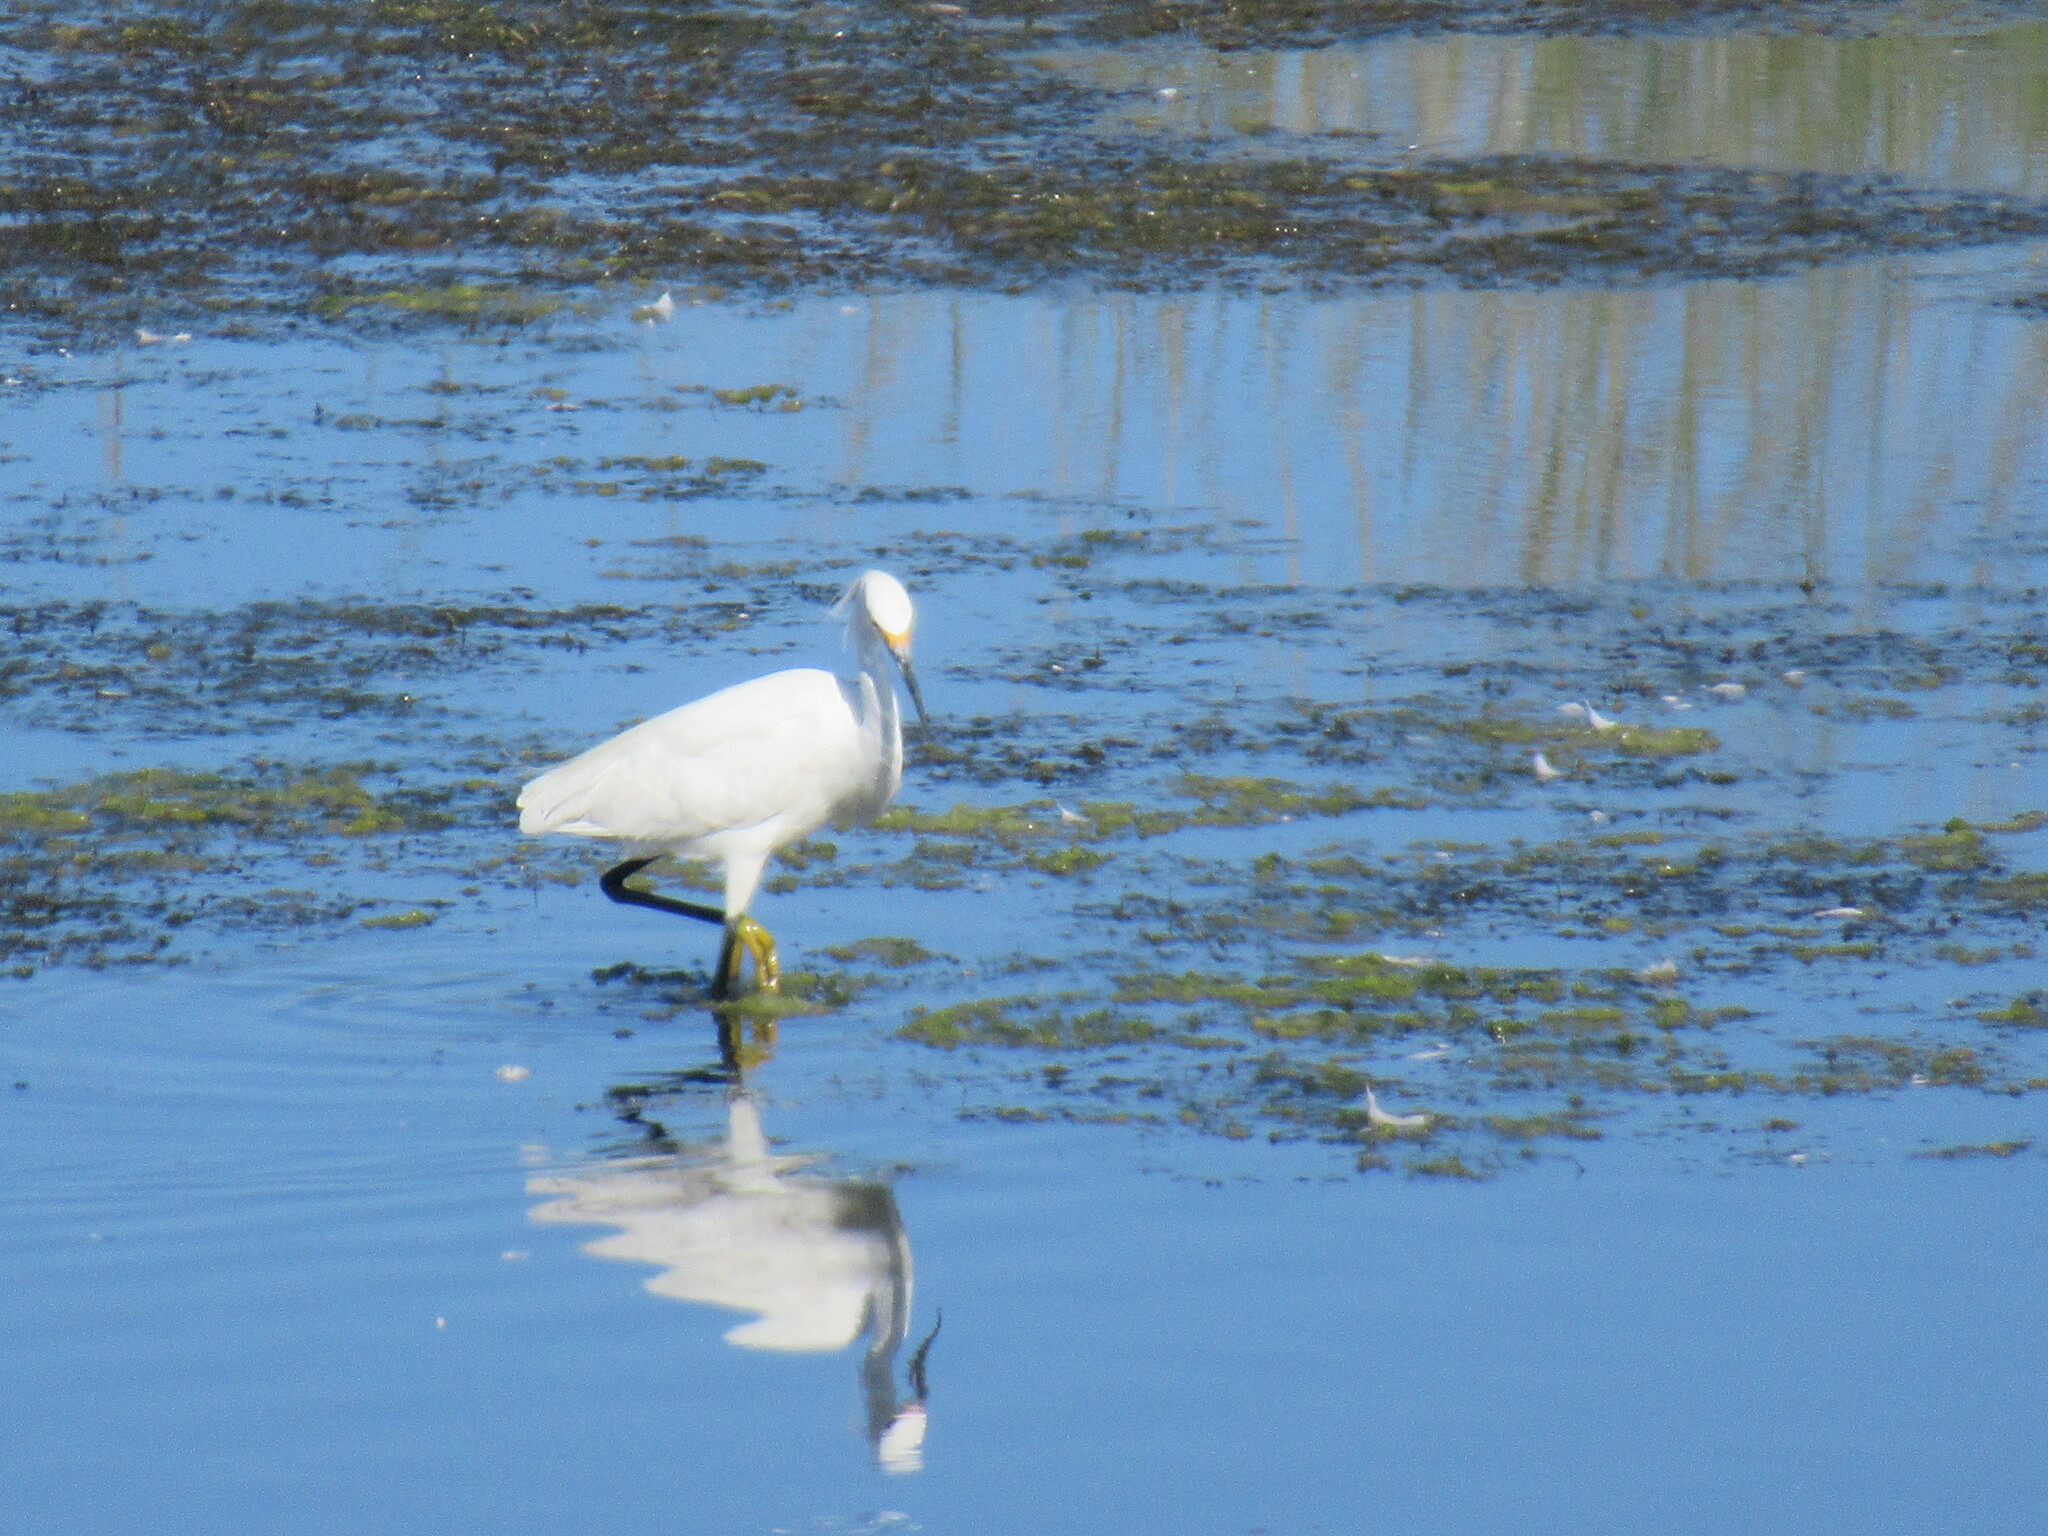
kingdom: Animalia
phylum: Chordata
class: Aves
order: Pelecaniformes
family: Ardeidae
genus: Egretta
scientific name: Egretta thula
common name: Snowy egret
